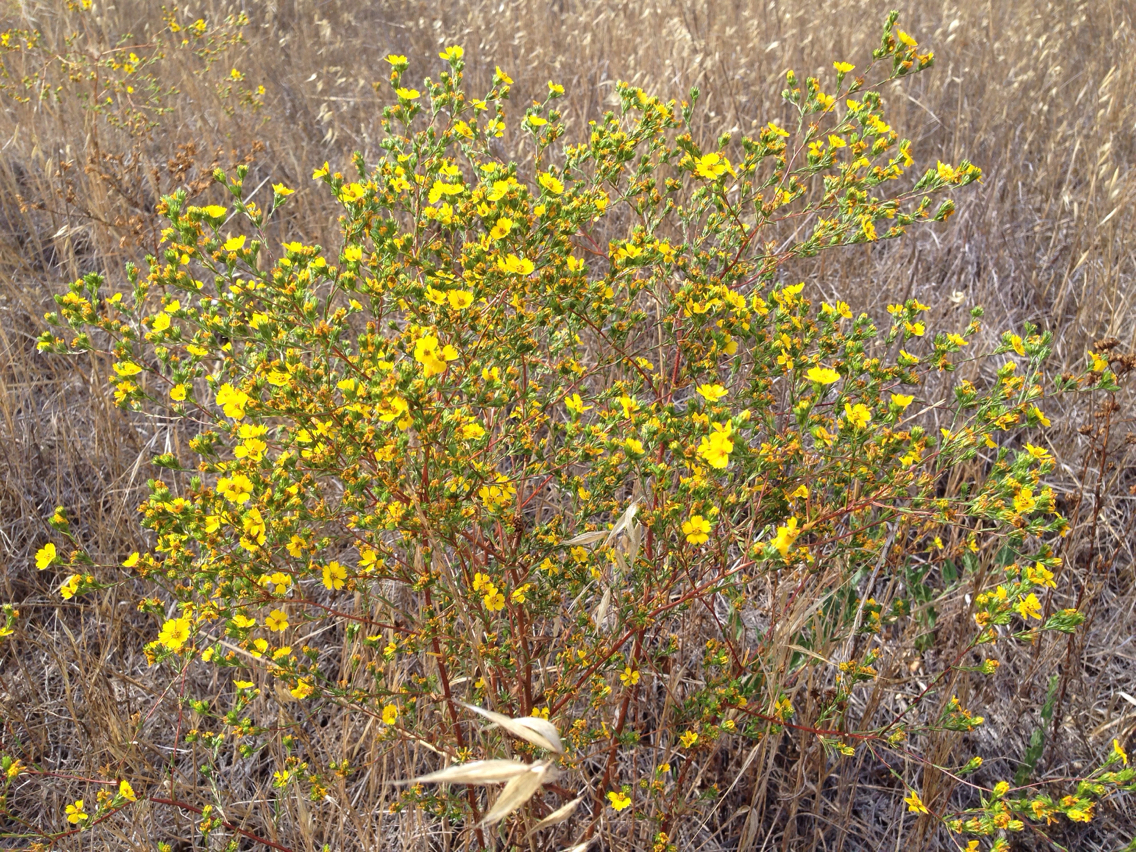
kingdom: Plantae
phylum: Tracheophyta
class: Magnoliopsida
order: Asterales
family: Asteraceae
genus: Deinandra
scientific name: Deinandra fasciculata
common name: Clustered tarweed
